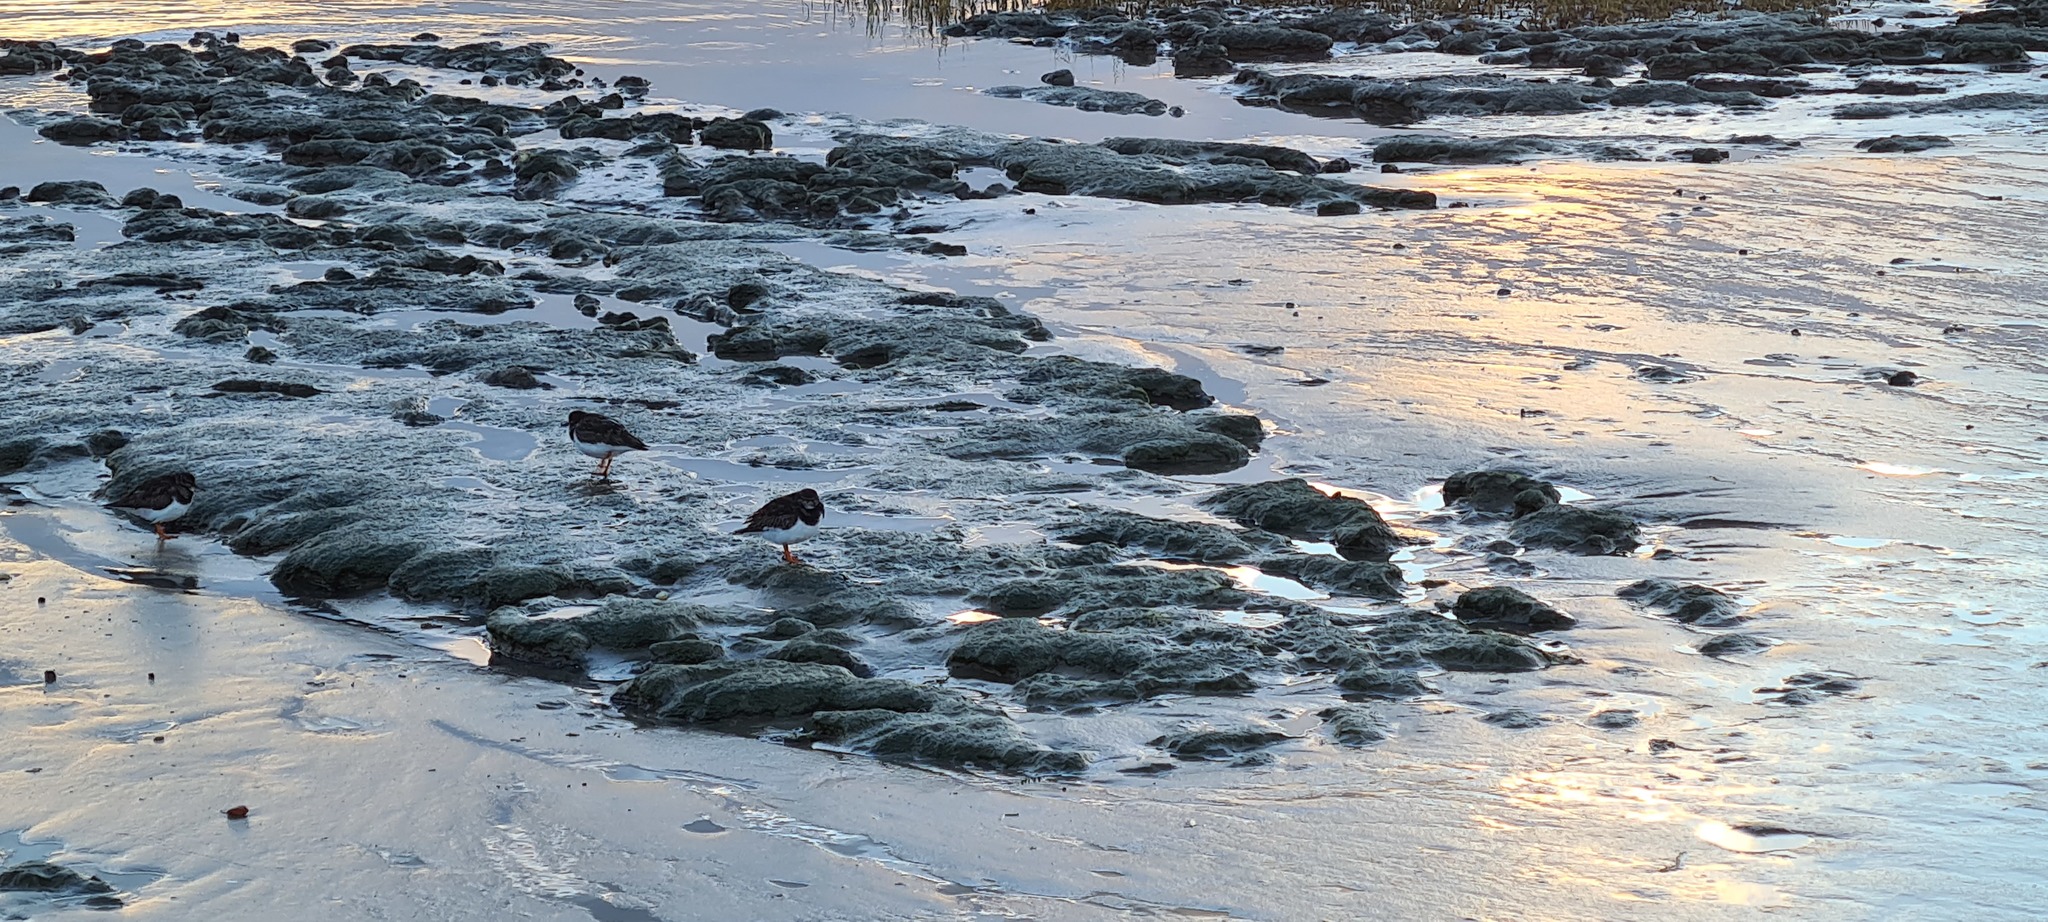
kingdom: Animalia
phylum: Chordata
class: Aves
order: Charadriiformes
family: Scolopacidae
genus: Arenaria
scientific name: Arenaria interpres
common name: Ruddy turnstone
